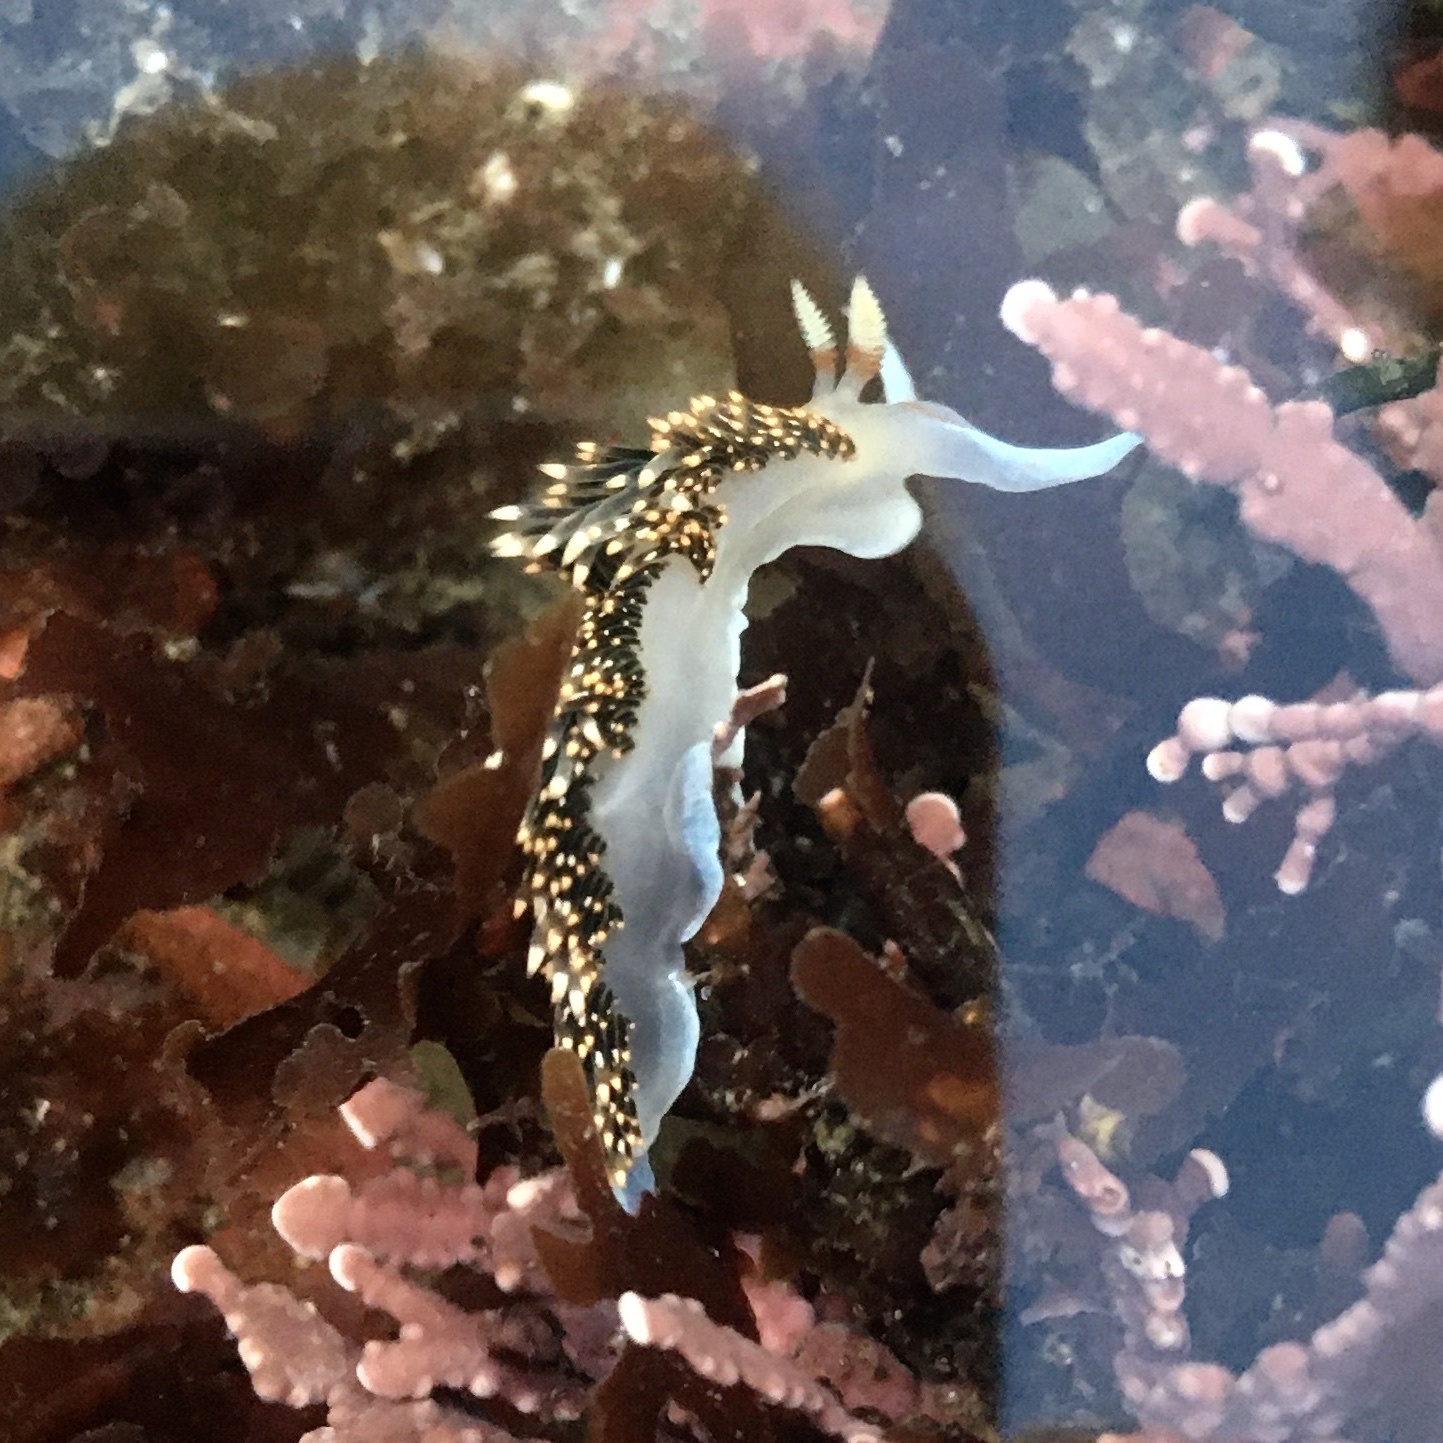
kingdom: Animalia
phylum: Mollusca
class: Gastropoda
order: Nudibranchia
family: Facelinidae
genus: Phidiana
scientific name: Phidiana hiltoni
